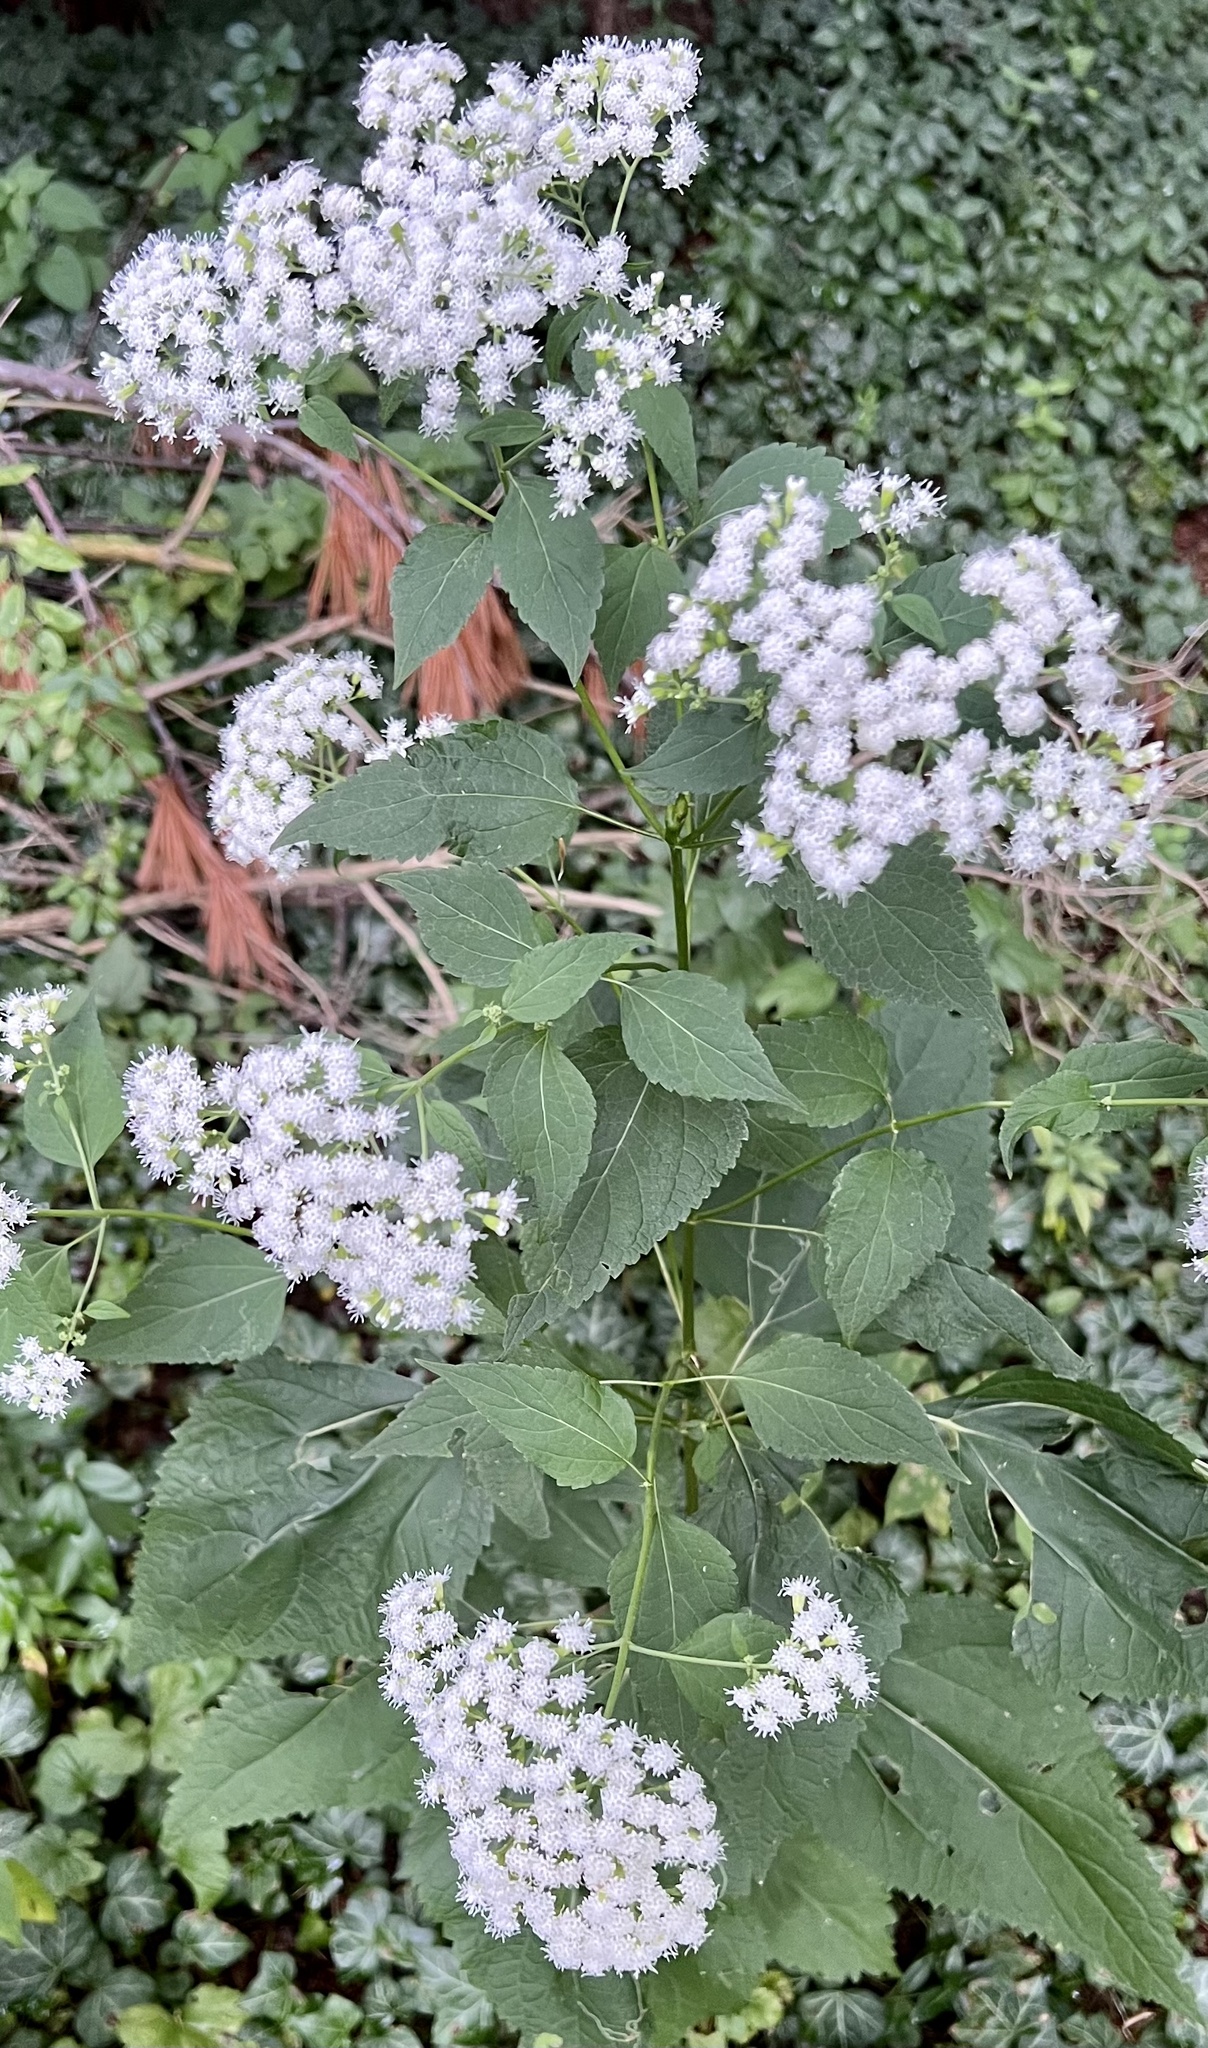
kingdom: Plantae
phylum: Tracheophyta
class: Magnoliopsida
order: Asterales
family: Asteraceae
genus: Ageratina
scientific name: Ageratina altissima
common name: White snakeroot
